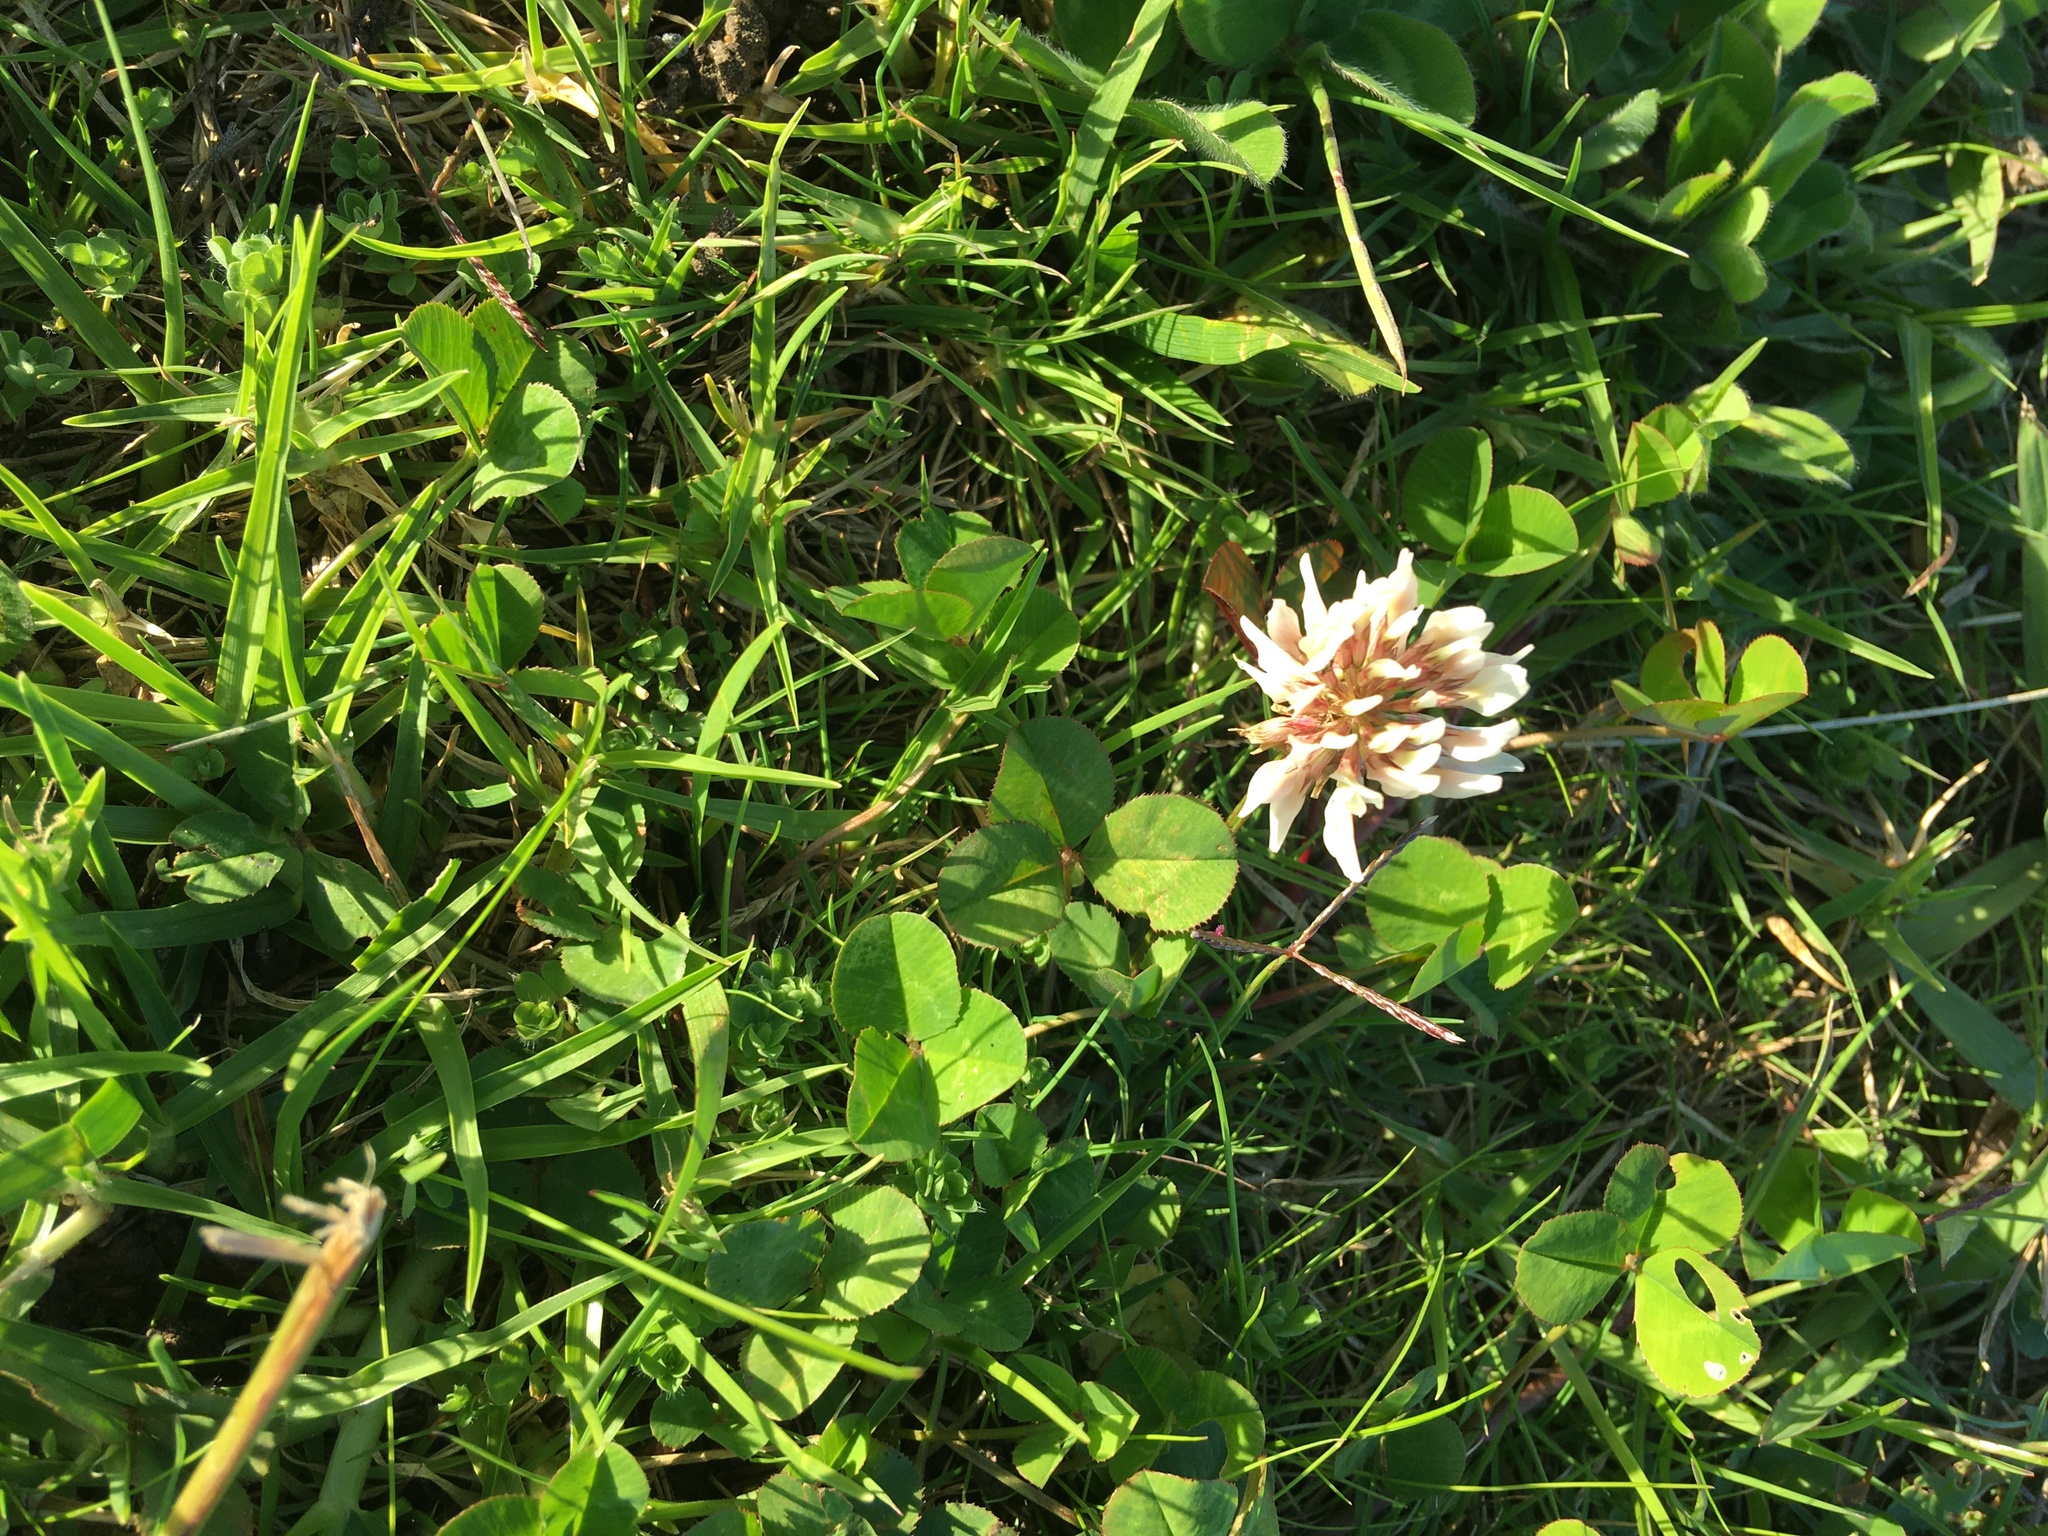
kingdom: Plantae
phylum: Tracheophyta
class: Magnoliopsida
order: Fabales
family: Fabaceae
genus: Trifolium
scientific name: Trifolium repens
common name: White clover
